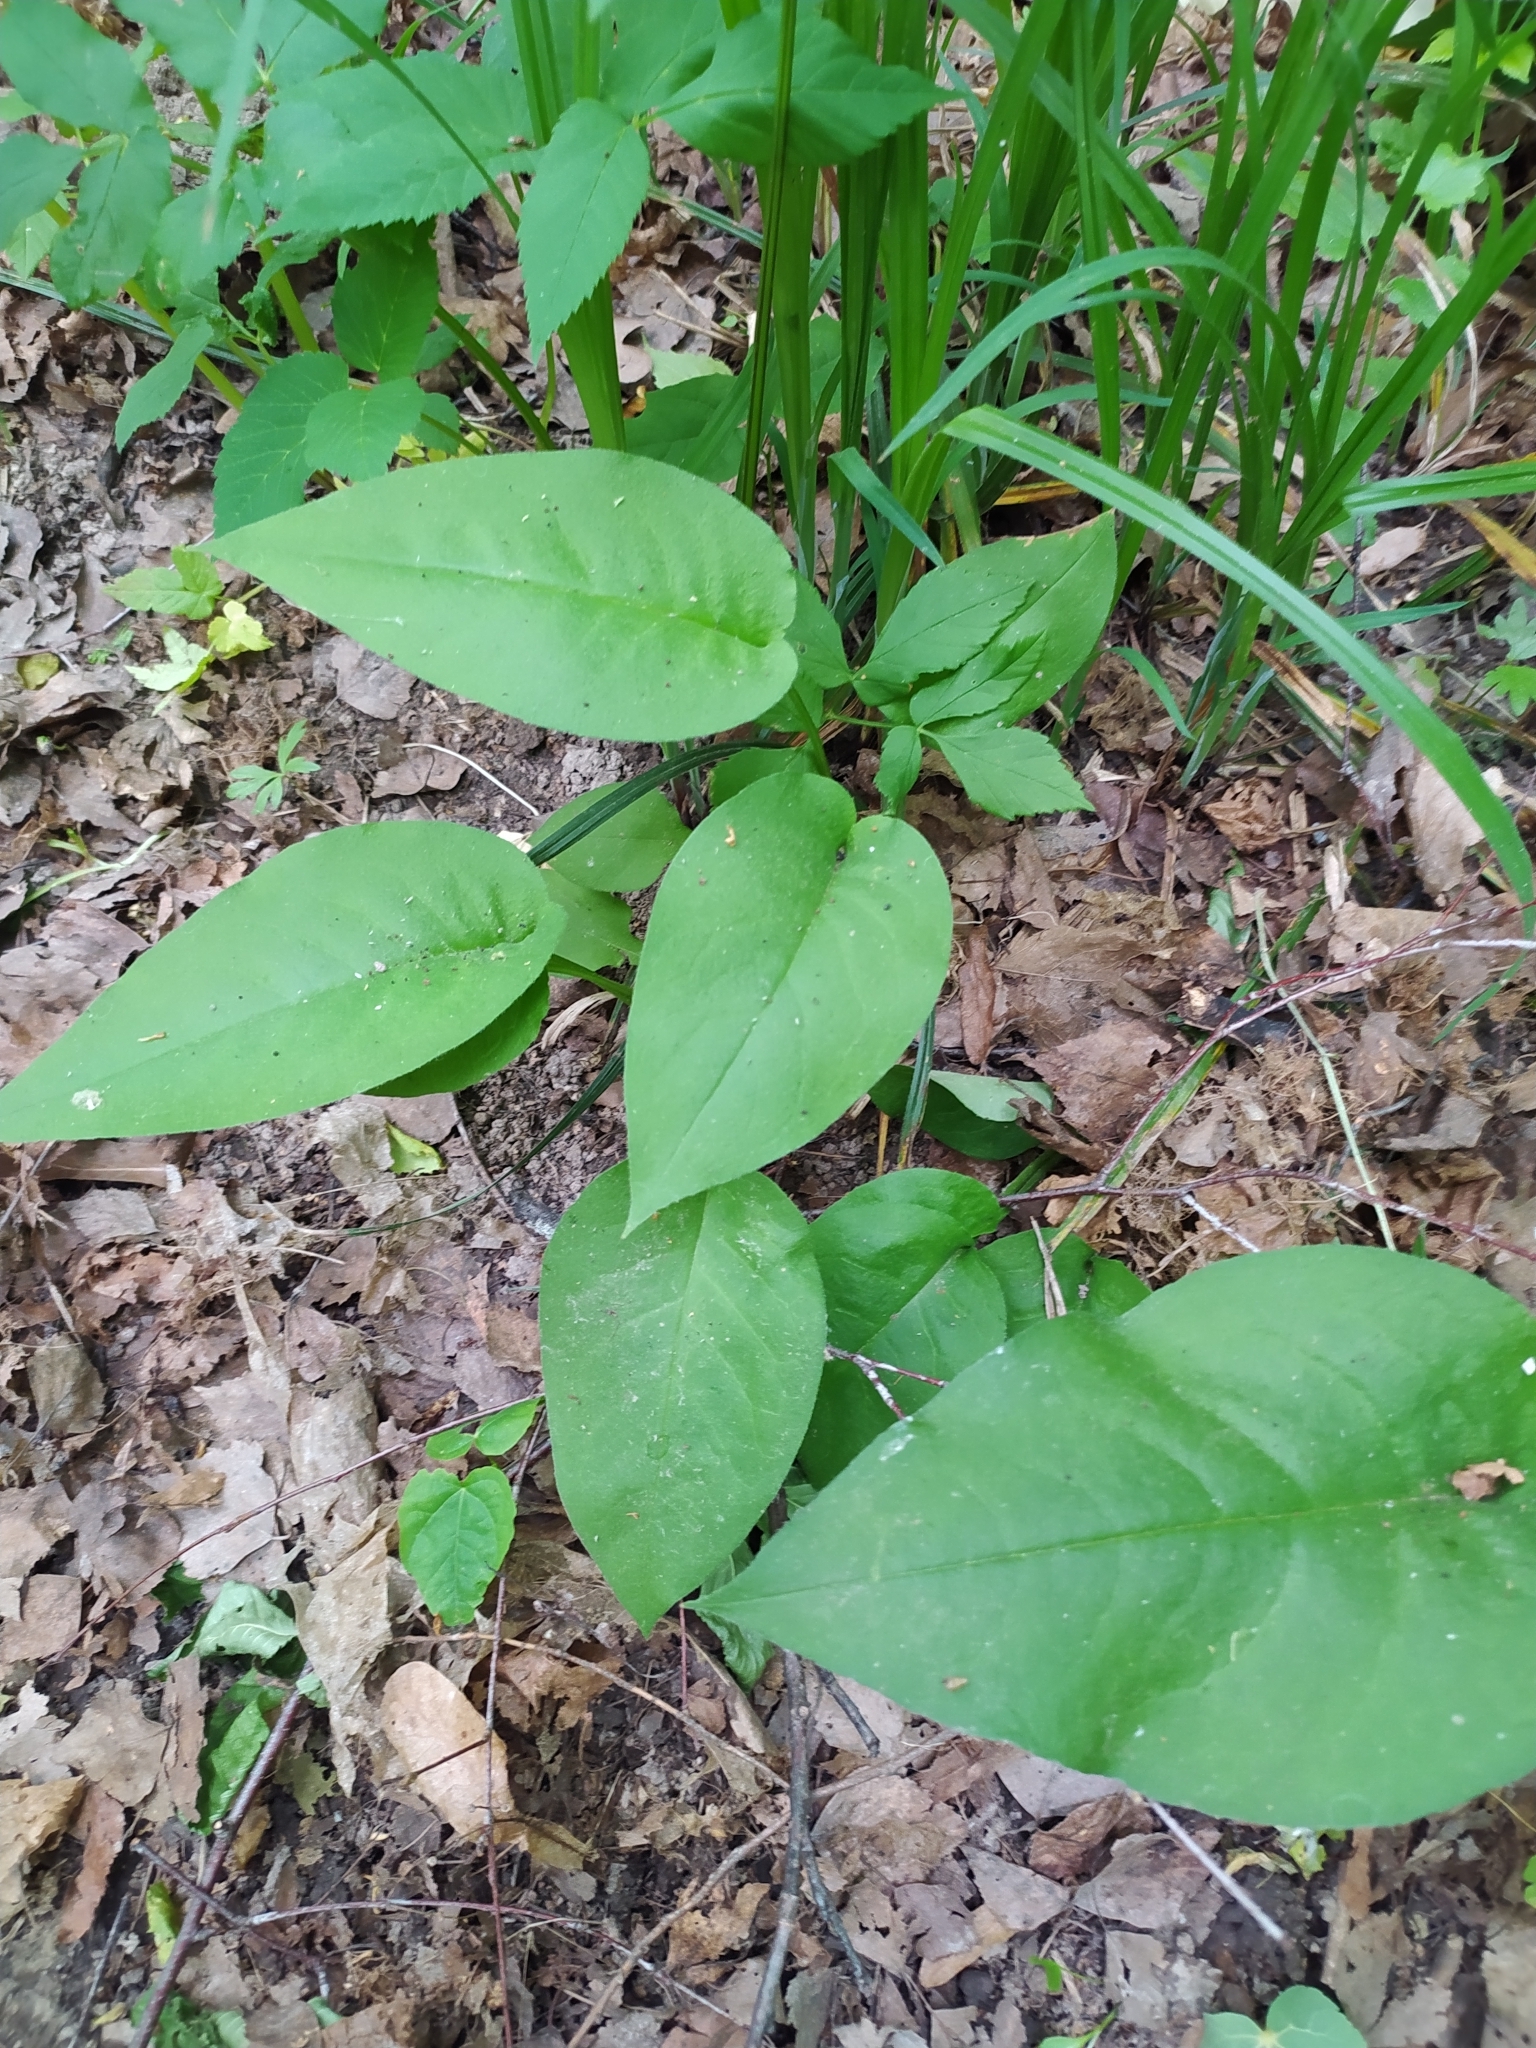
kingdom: Plantae
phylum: Tracheophyta
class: Magnoliopsida
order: Boraginales
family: Boraginaceae
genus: Pulmonaria
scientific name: Pulmonaria obscura
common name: Suffolk lungwort
